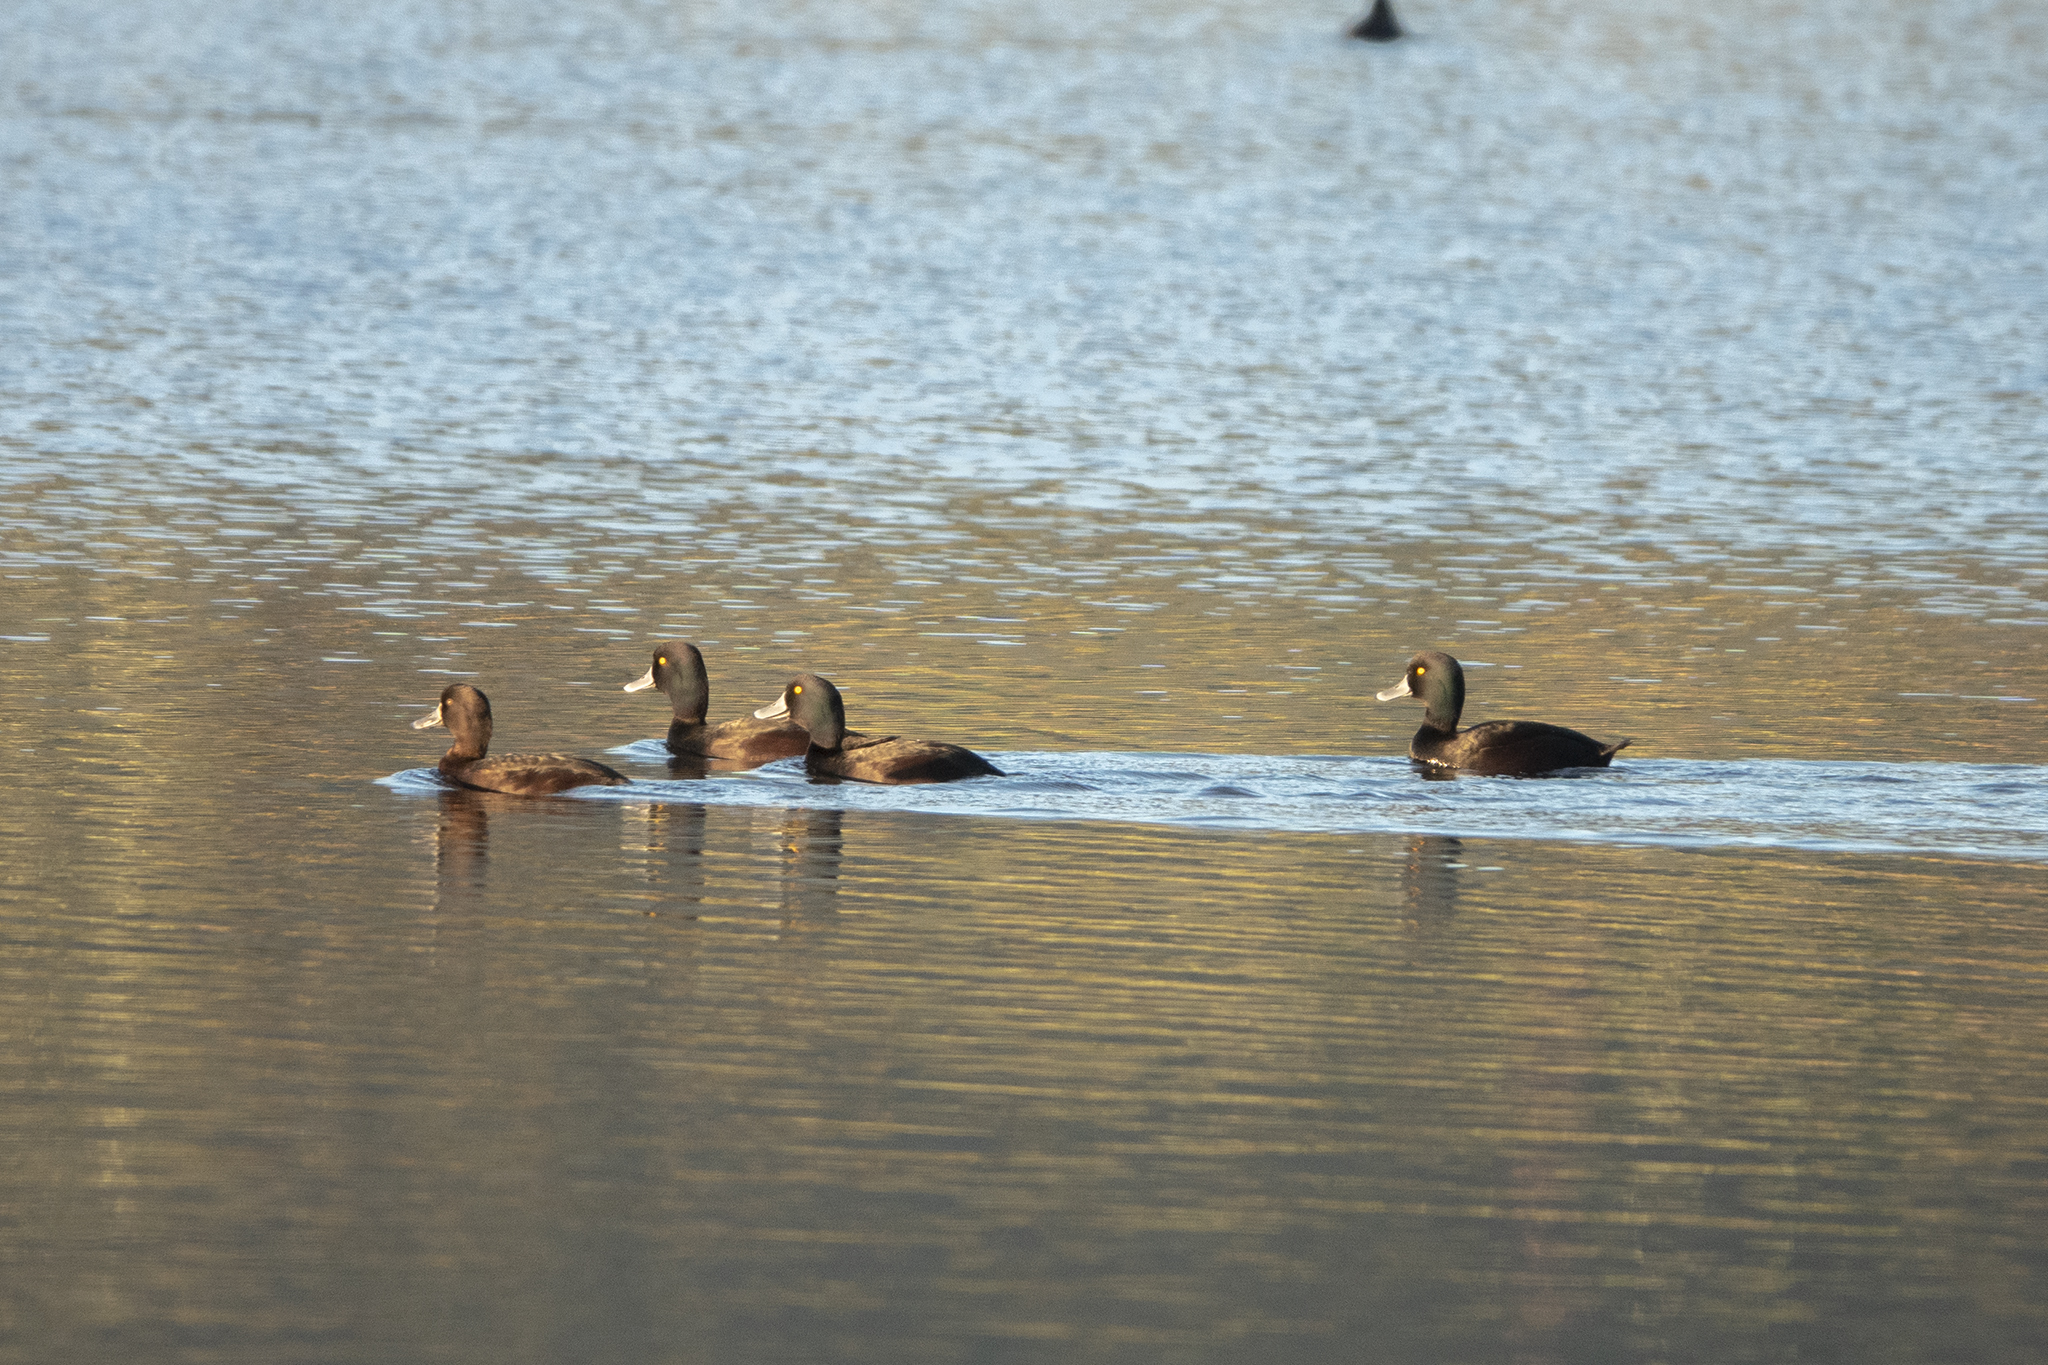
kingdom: Animalia
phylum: Chordata
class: Aves
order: Anseriformes
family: Anatidae
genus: Aythya
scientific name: Aythya novaeseelandiae
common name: New zealand scaup
